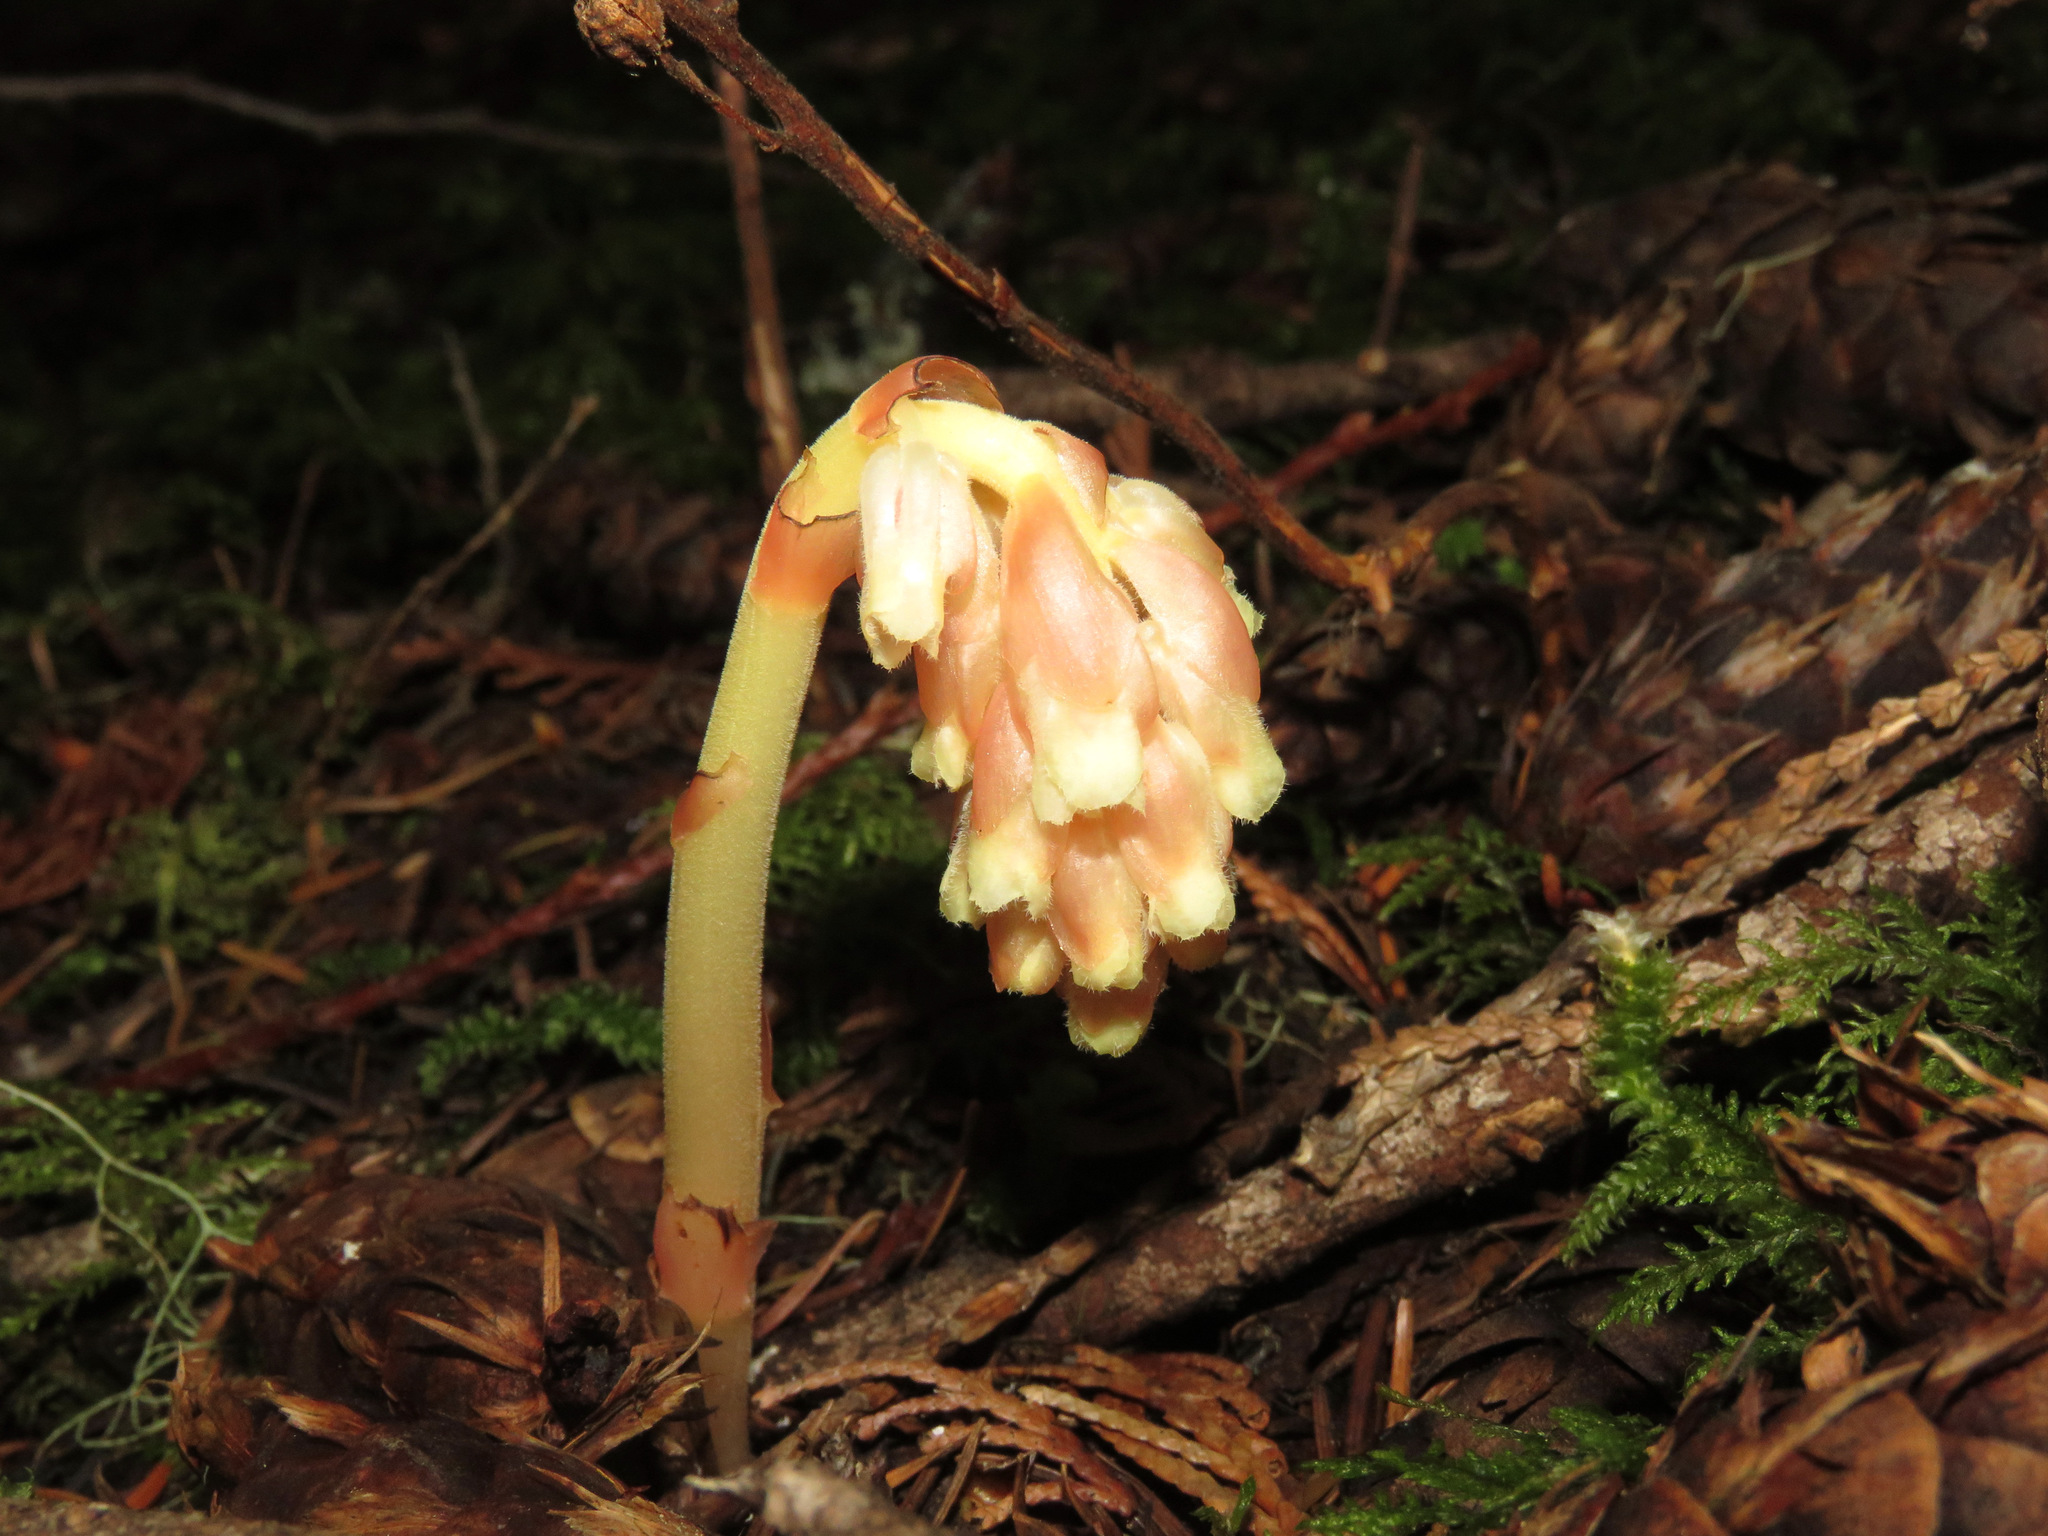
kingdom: Plantae
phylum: Tracheophyta
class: Magnoliopsida
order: Ericales
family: Ericaceae
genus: Hypopitys
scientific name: Hypopitys monotropa
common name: Yellow bird's-nest
